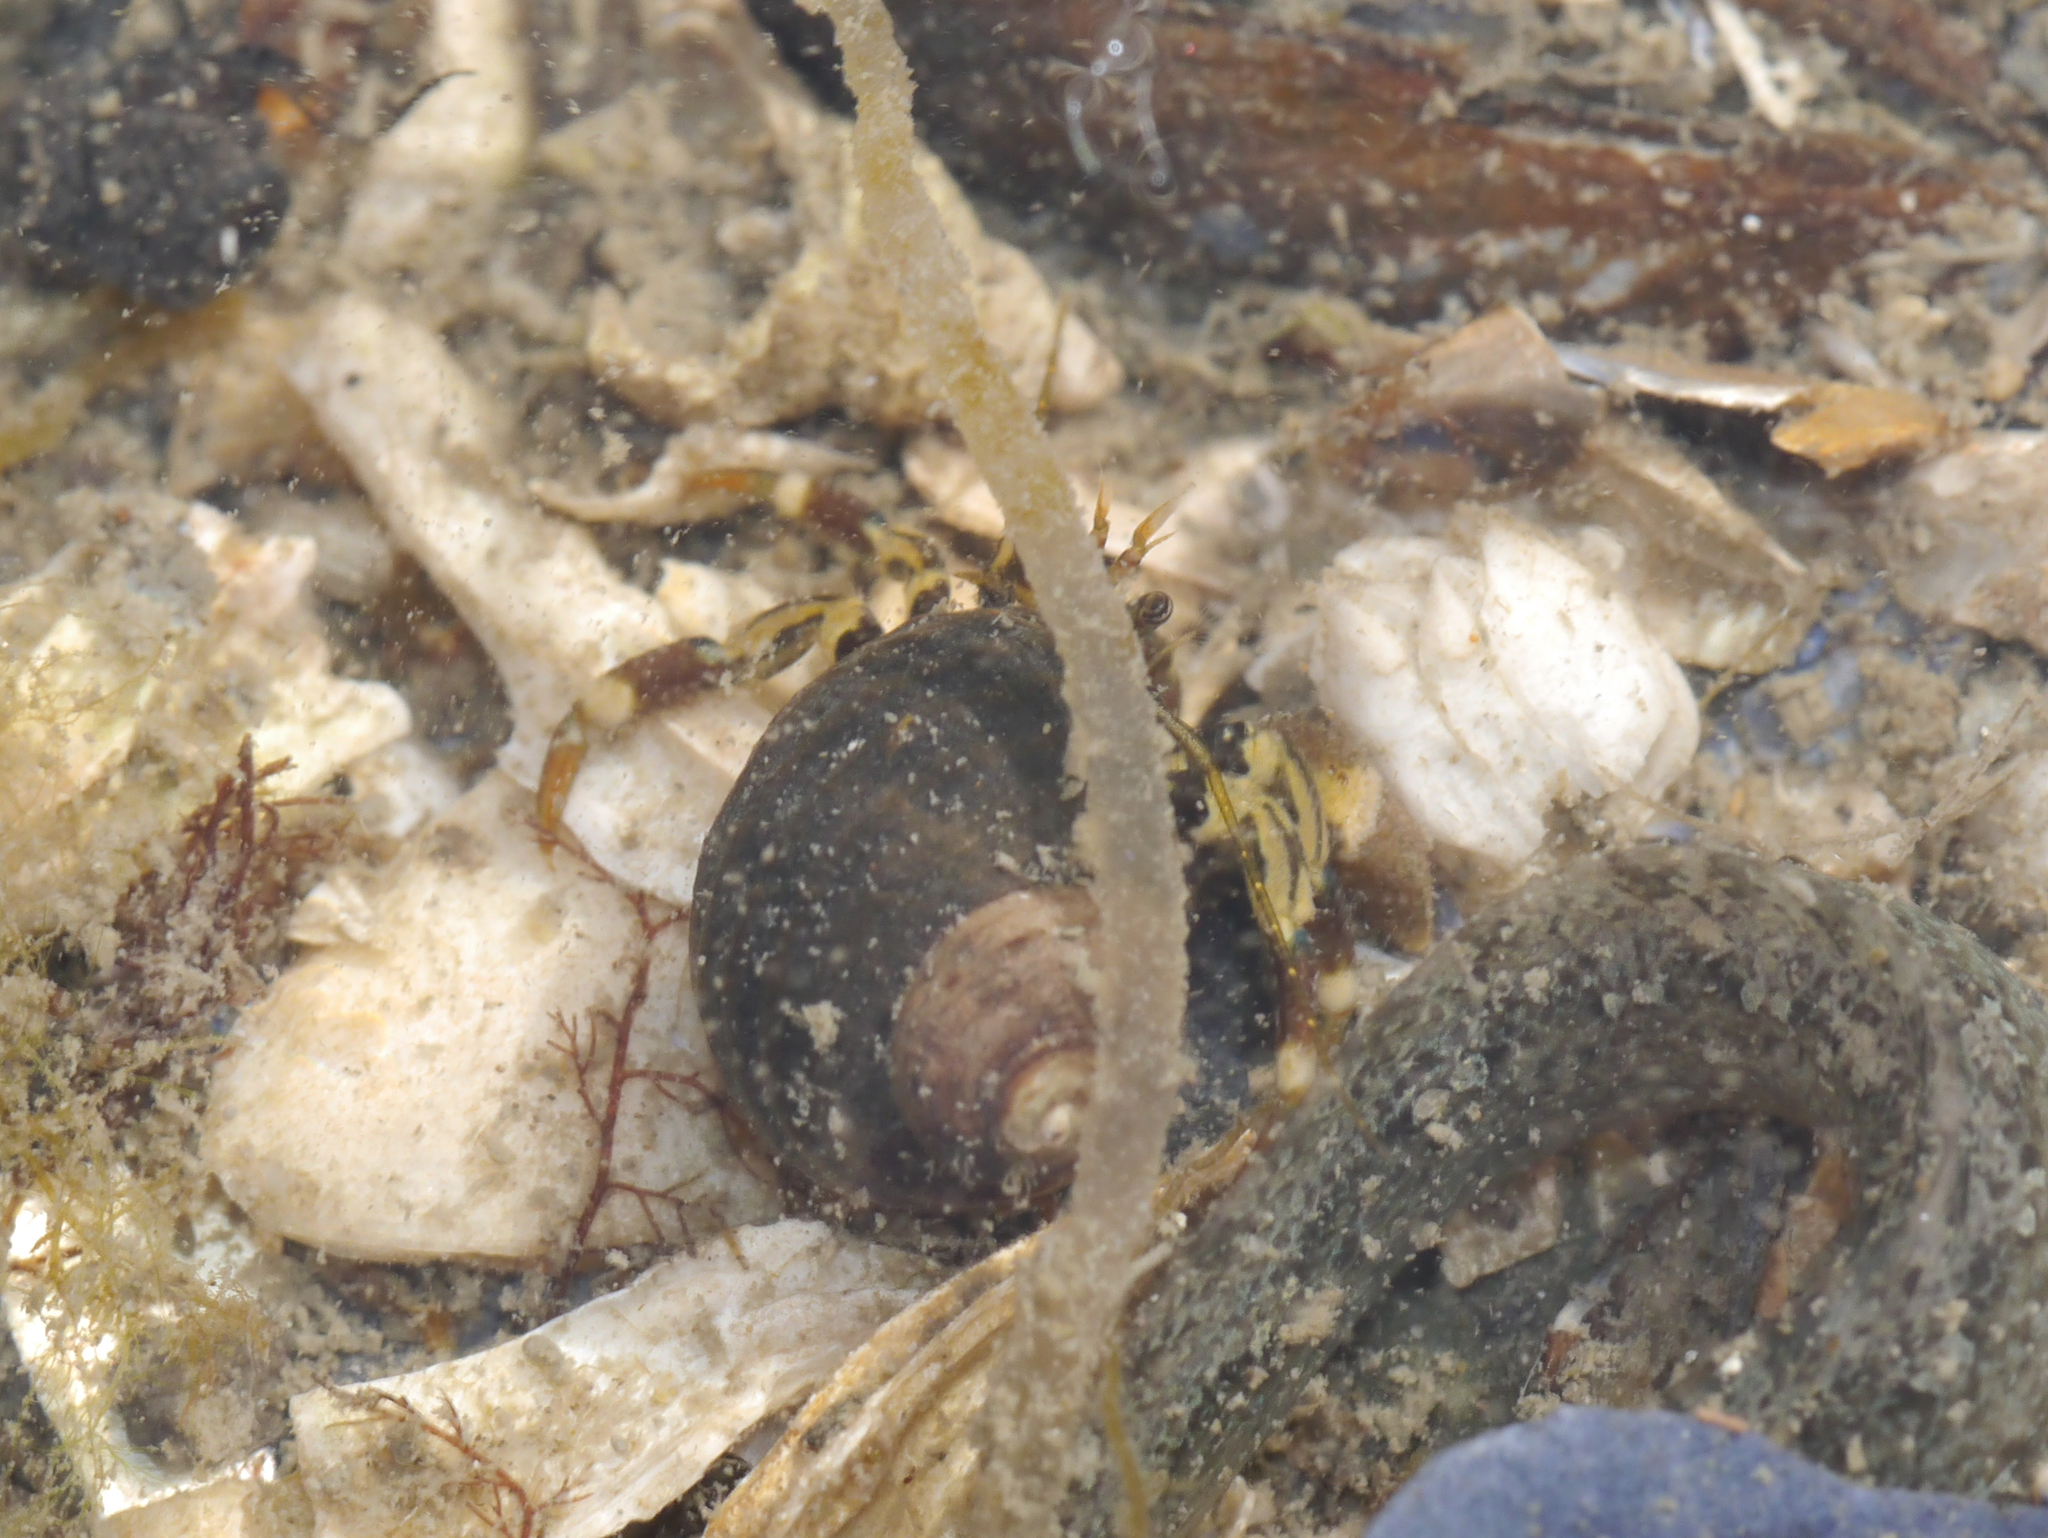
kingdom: Animalia
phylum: Arthropoda
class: Malacostraca
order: Decapoda
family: Paguridae
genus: Pagurus
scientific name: Pagurus hirsutiusculus
